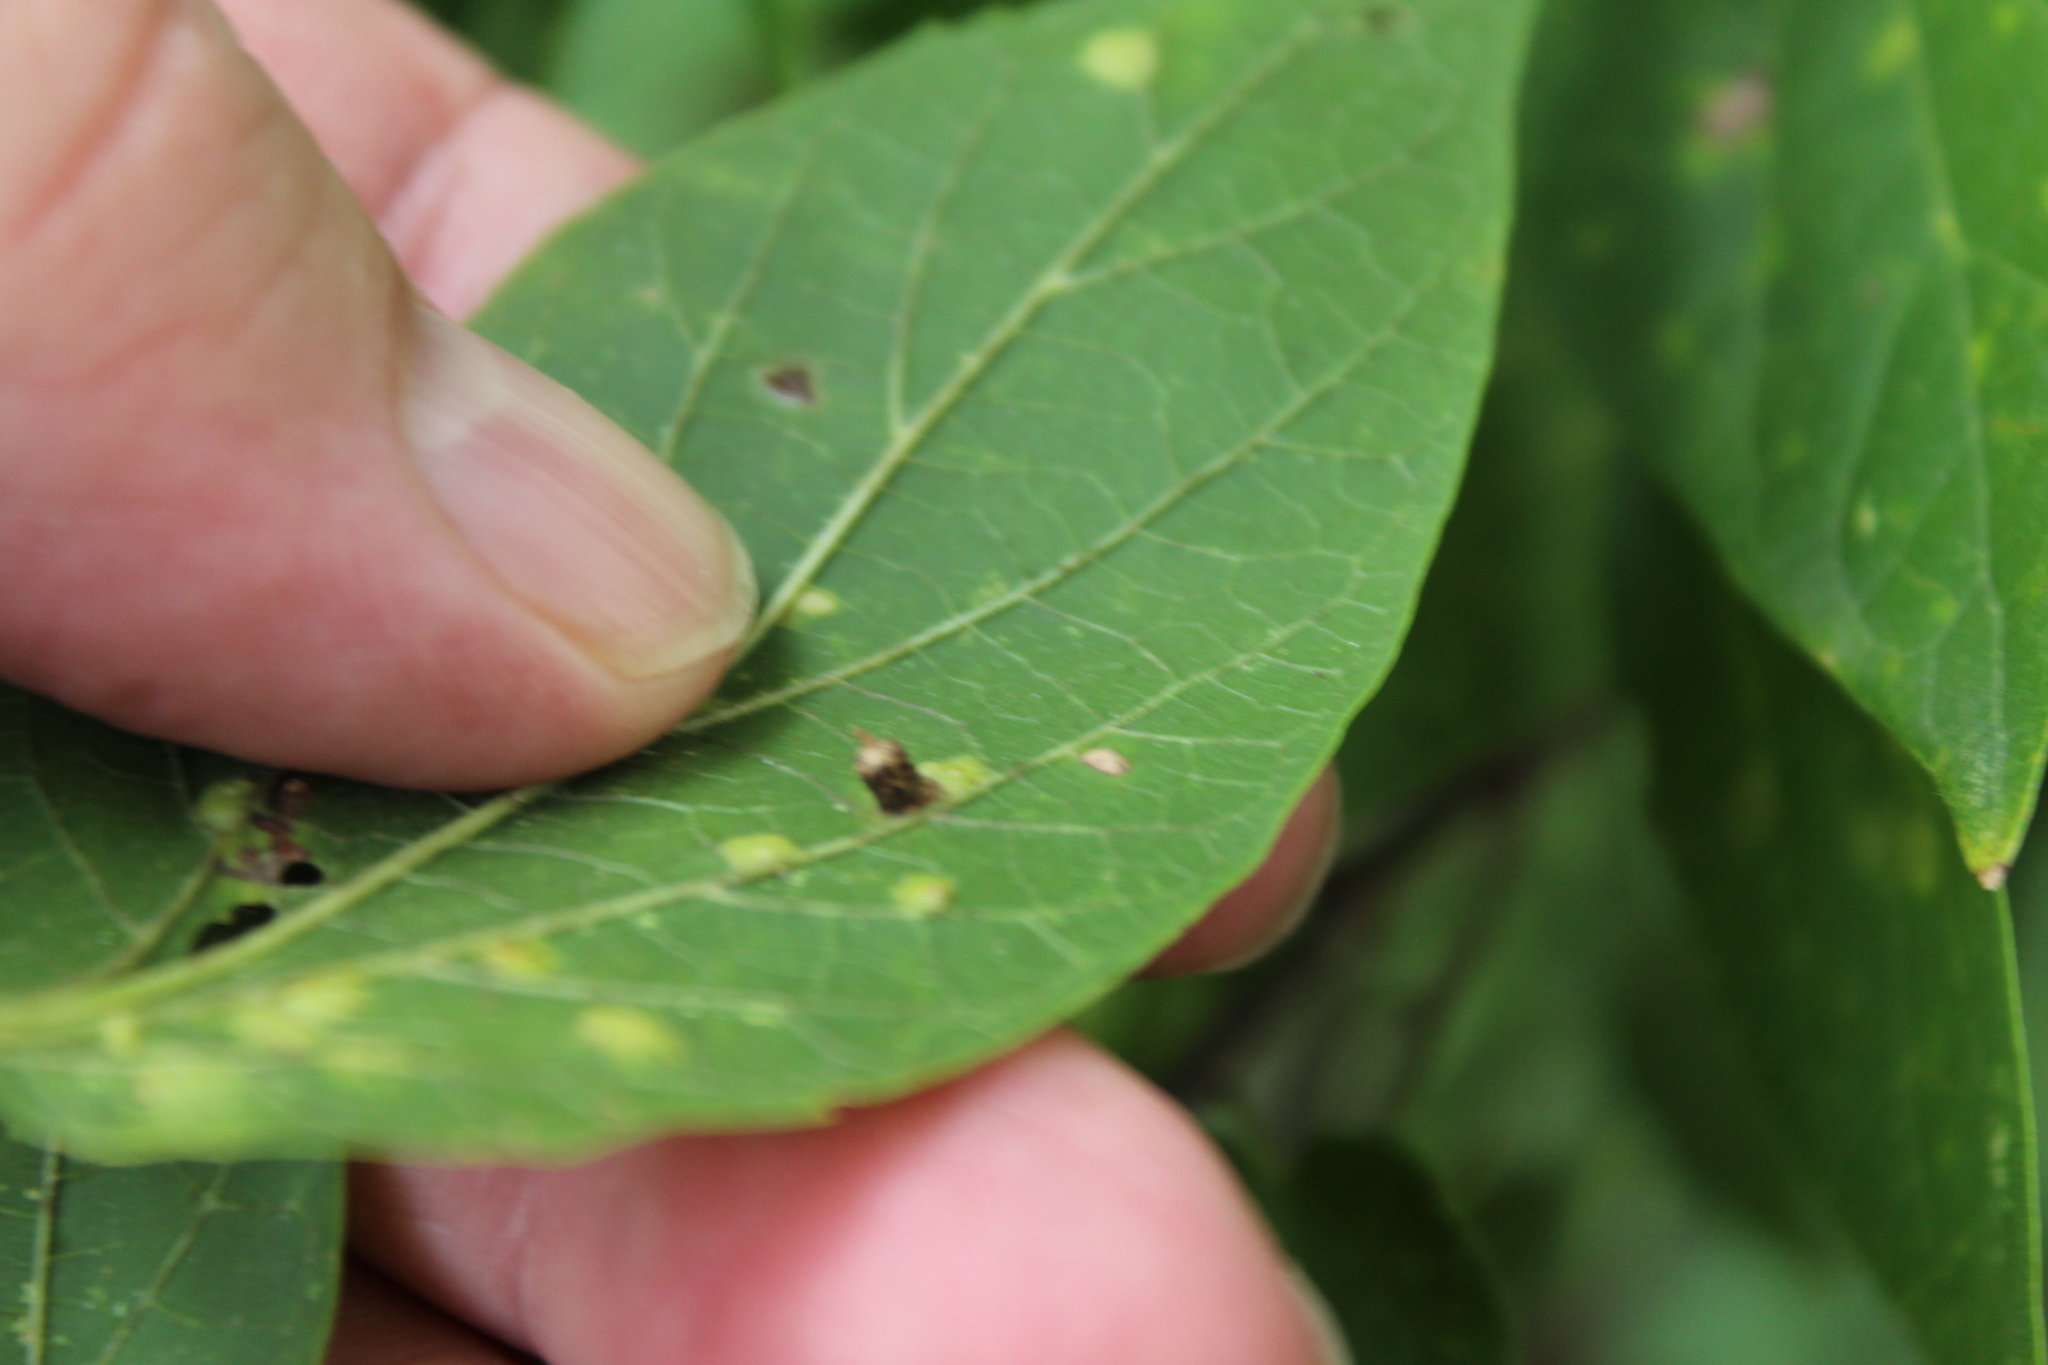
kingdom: Animalia
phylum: Arthropoda
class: Insecta
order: Diptera
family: Cecidomyiidae
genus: Celticecis
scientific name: Celticecis ramicola
